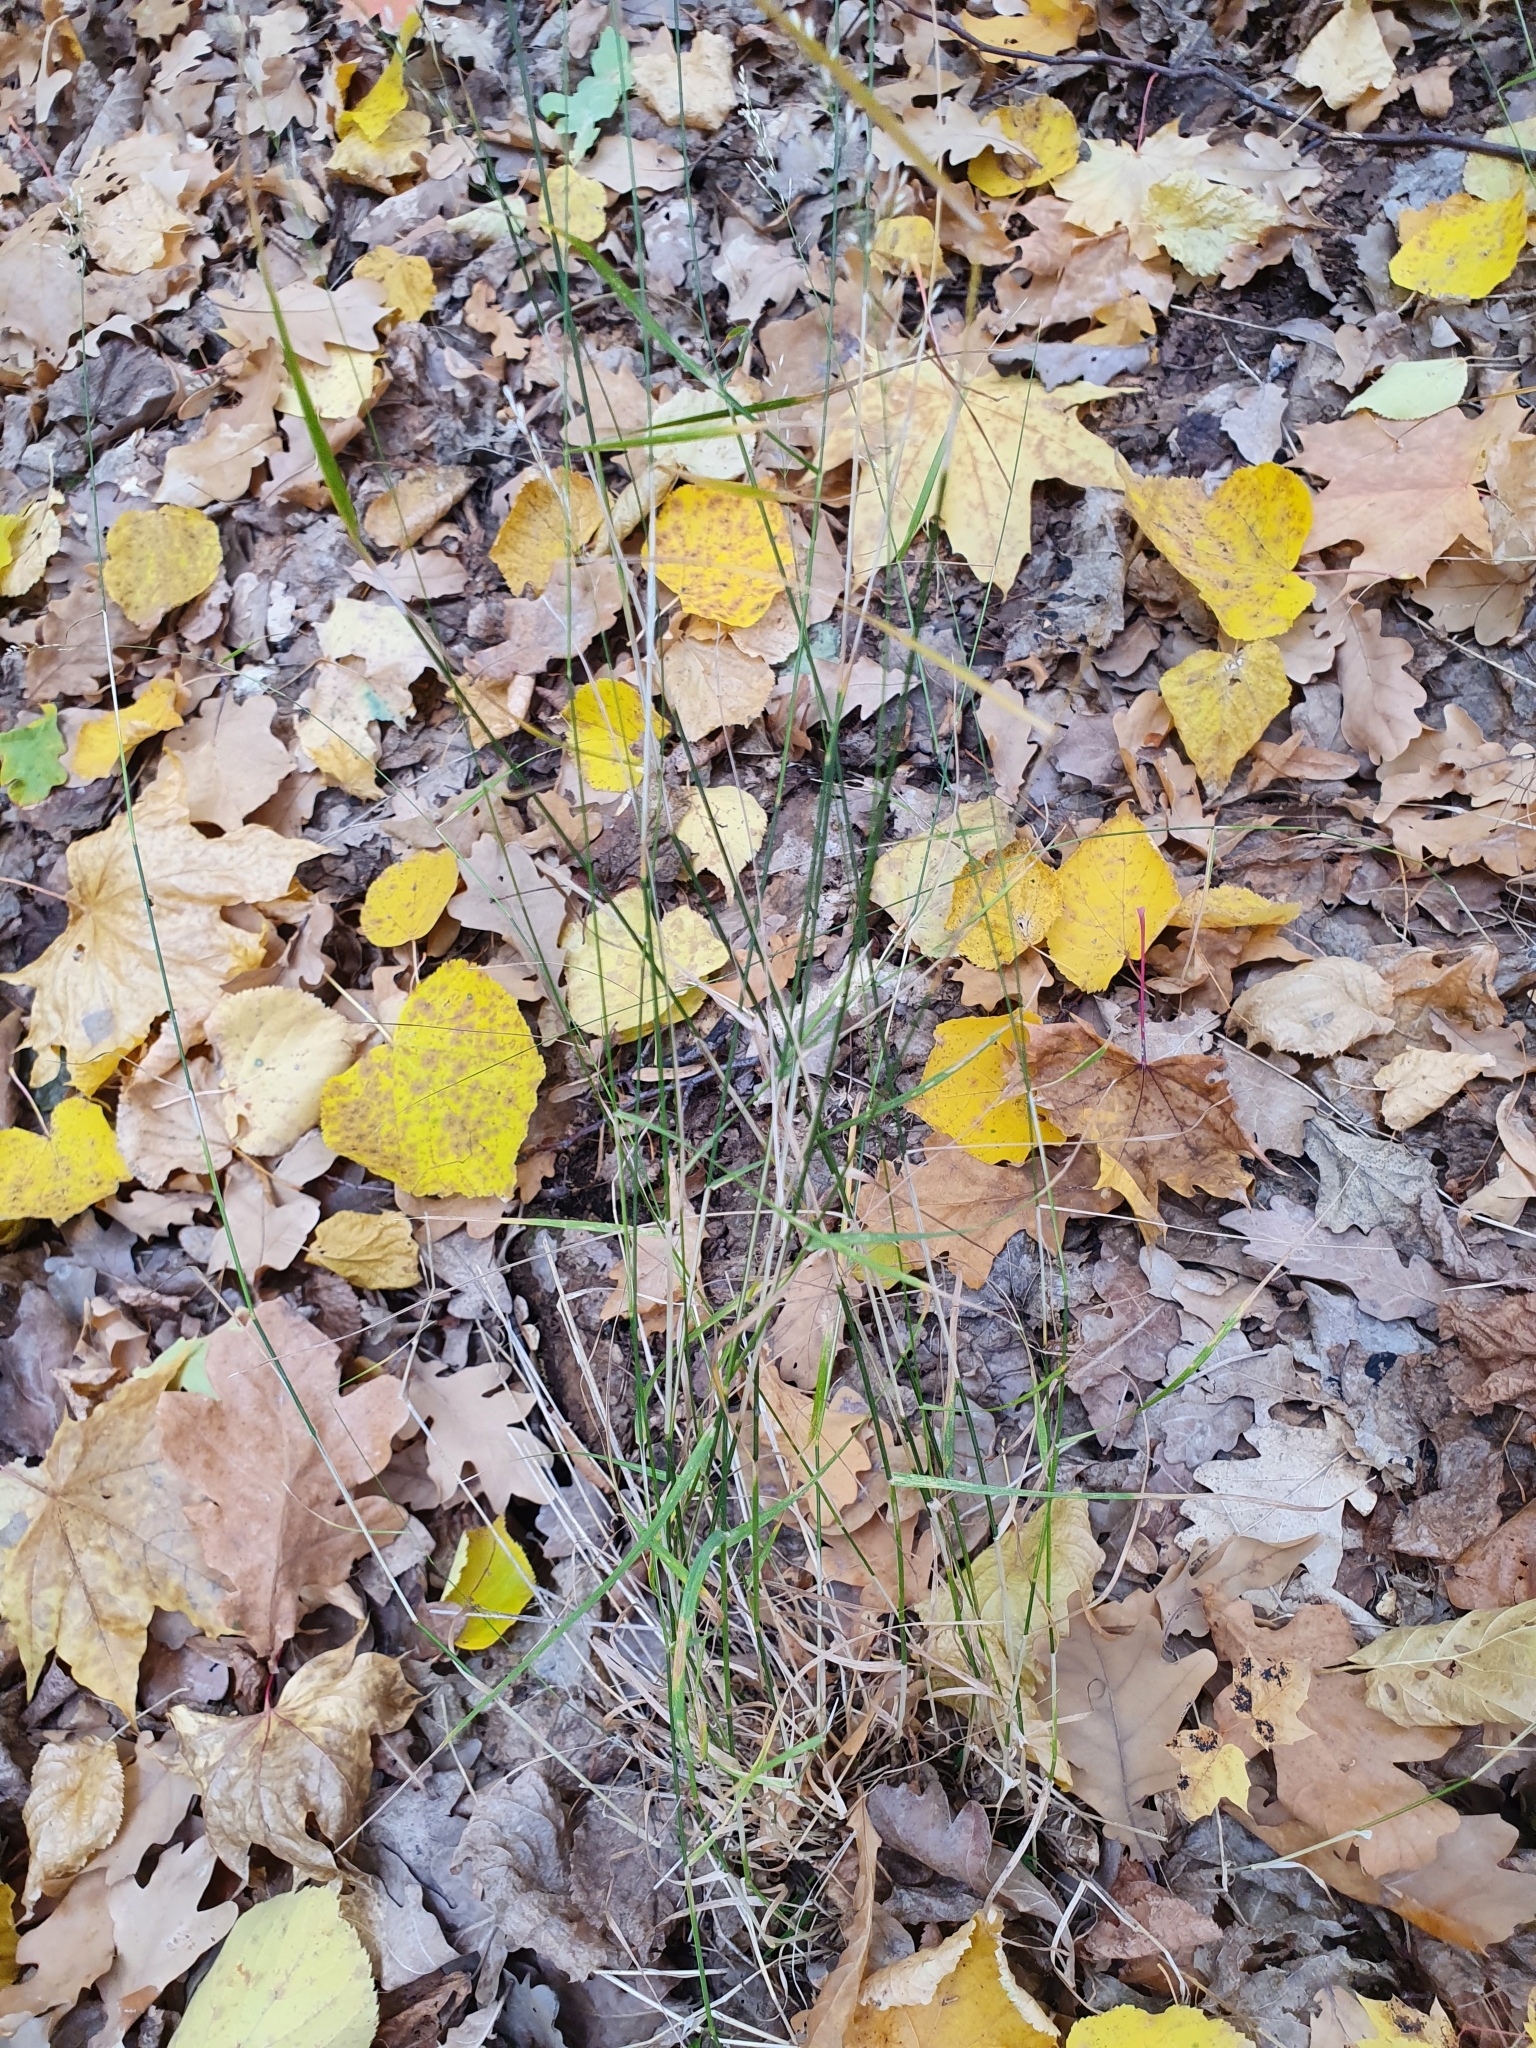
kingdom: Plantae
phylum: Tracheophyta
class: Liliopsida
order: Poales
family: Poaceae
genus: Poa
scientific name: Poa nemoralis
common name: Wood bluegrass
